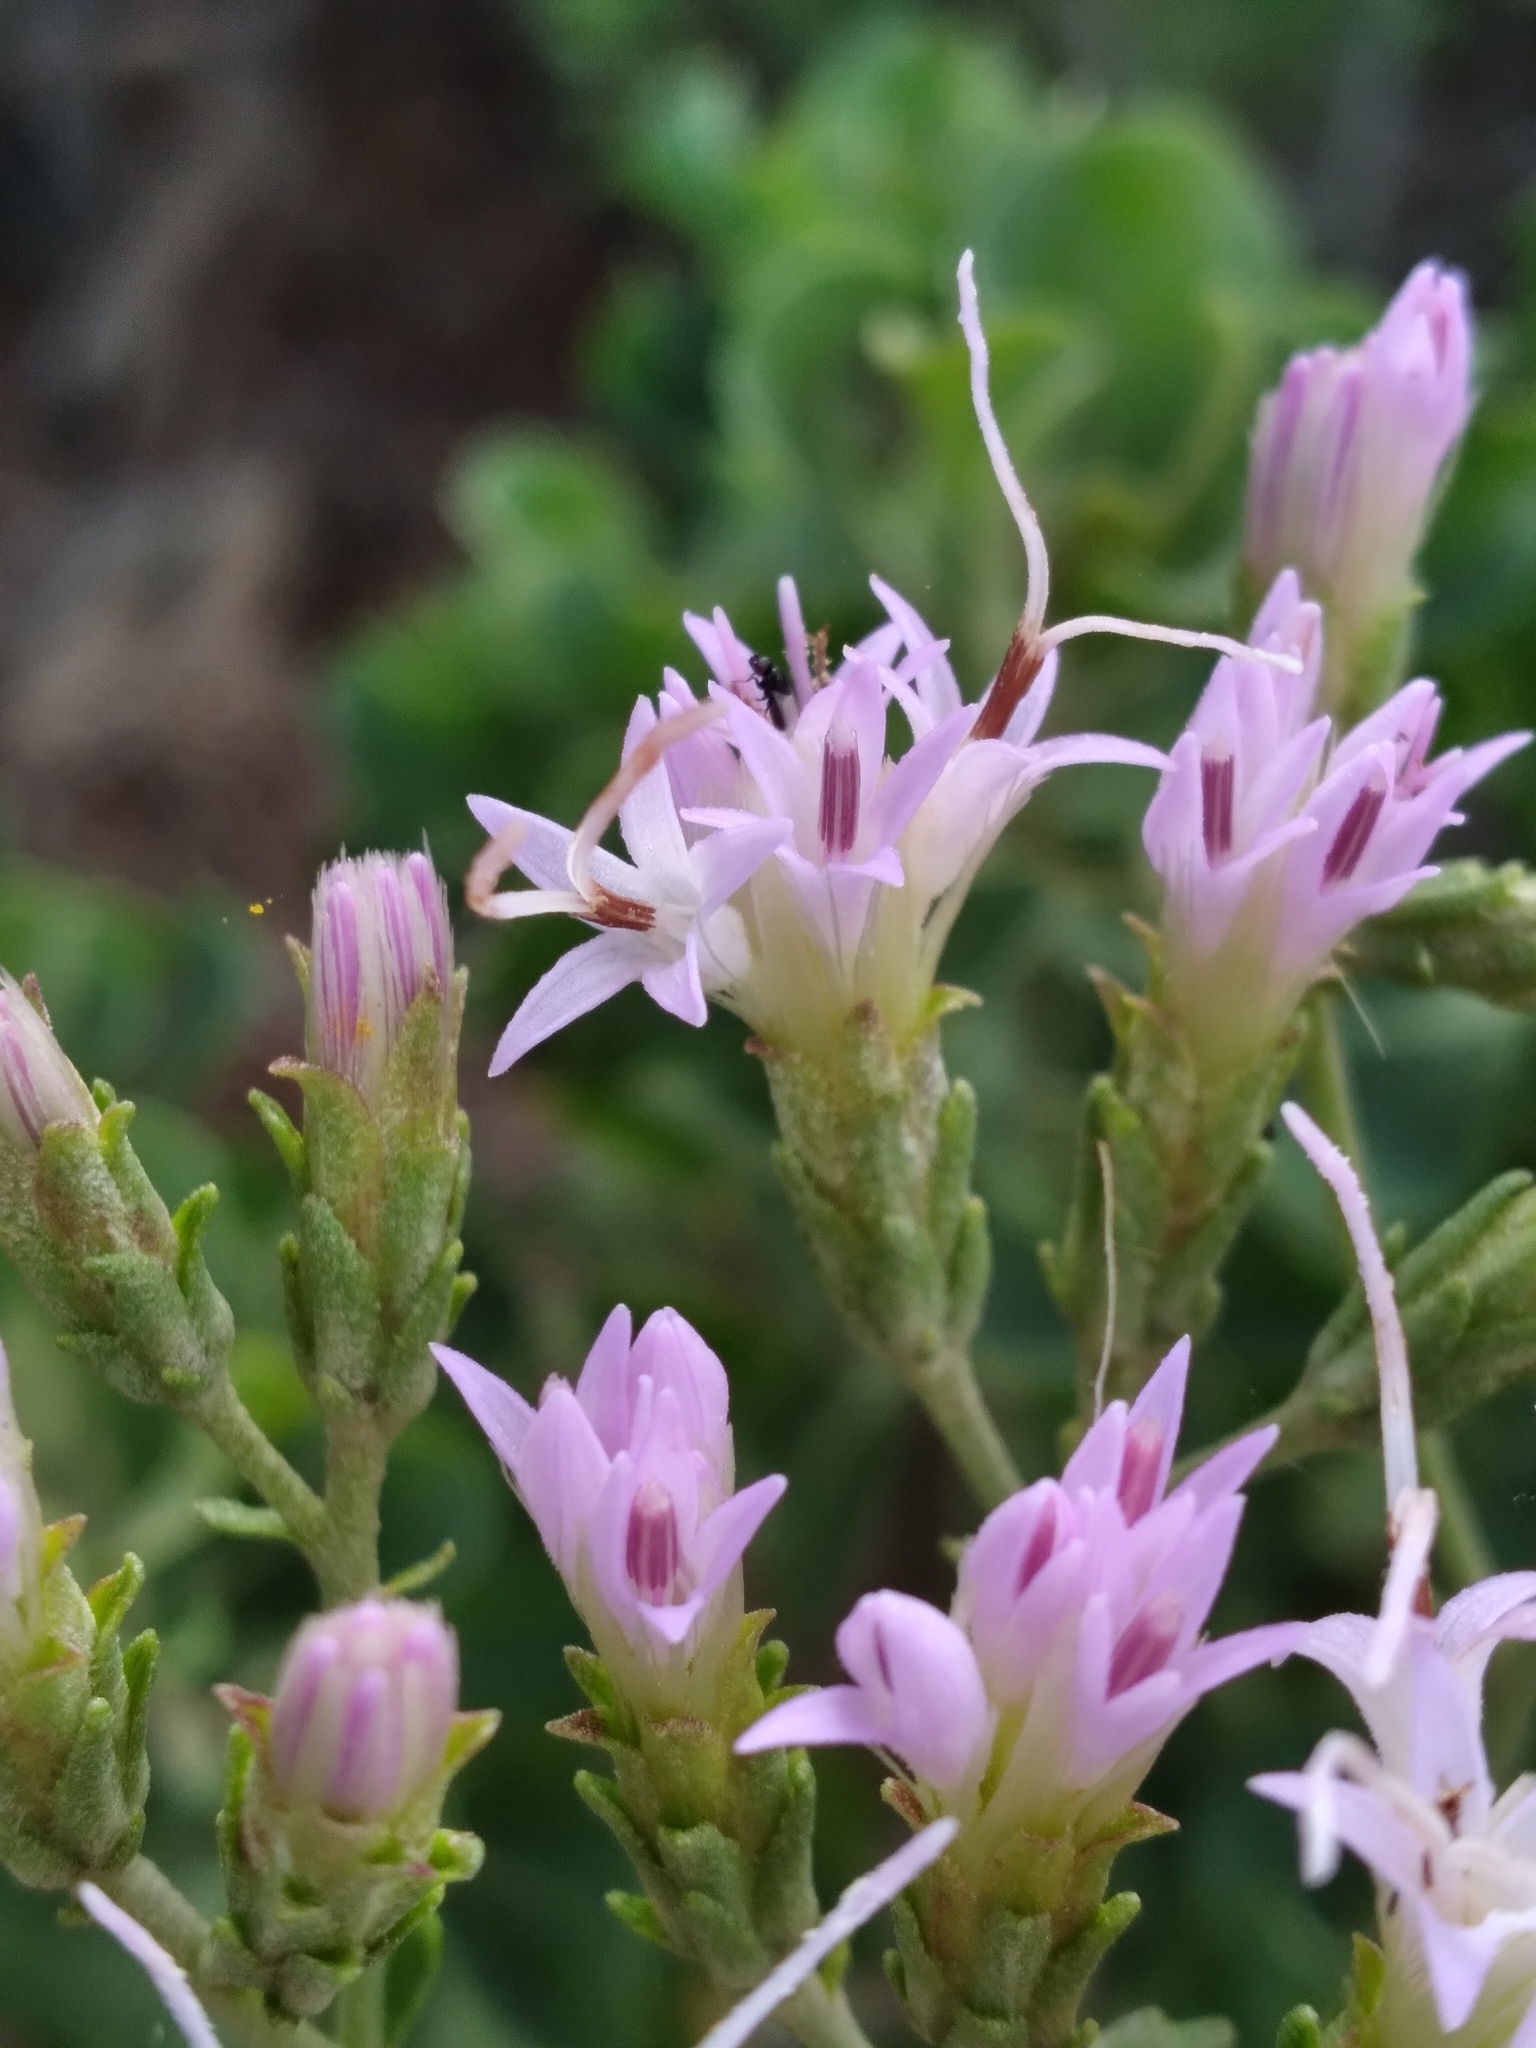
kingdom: Plantae
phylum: Tracheophyta
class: Magnoliopsida
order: Asterales
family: Asteraceae
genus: Garberia
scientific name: Garberia heterophylla
